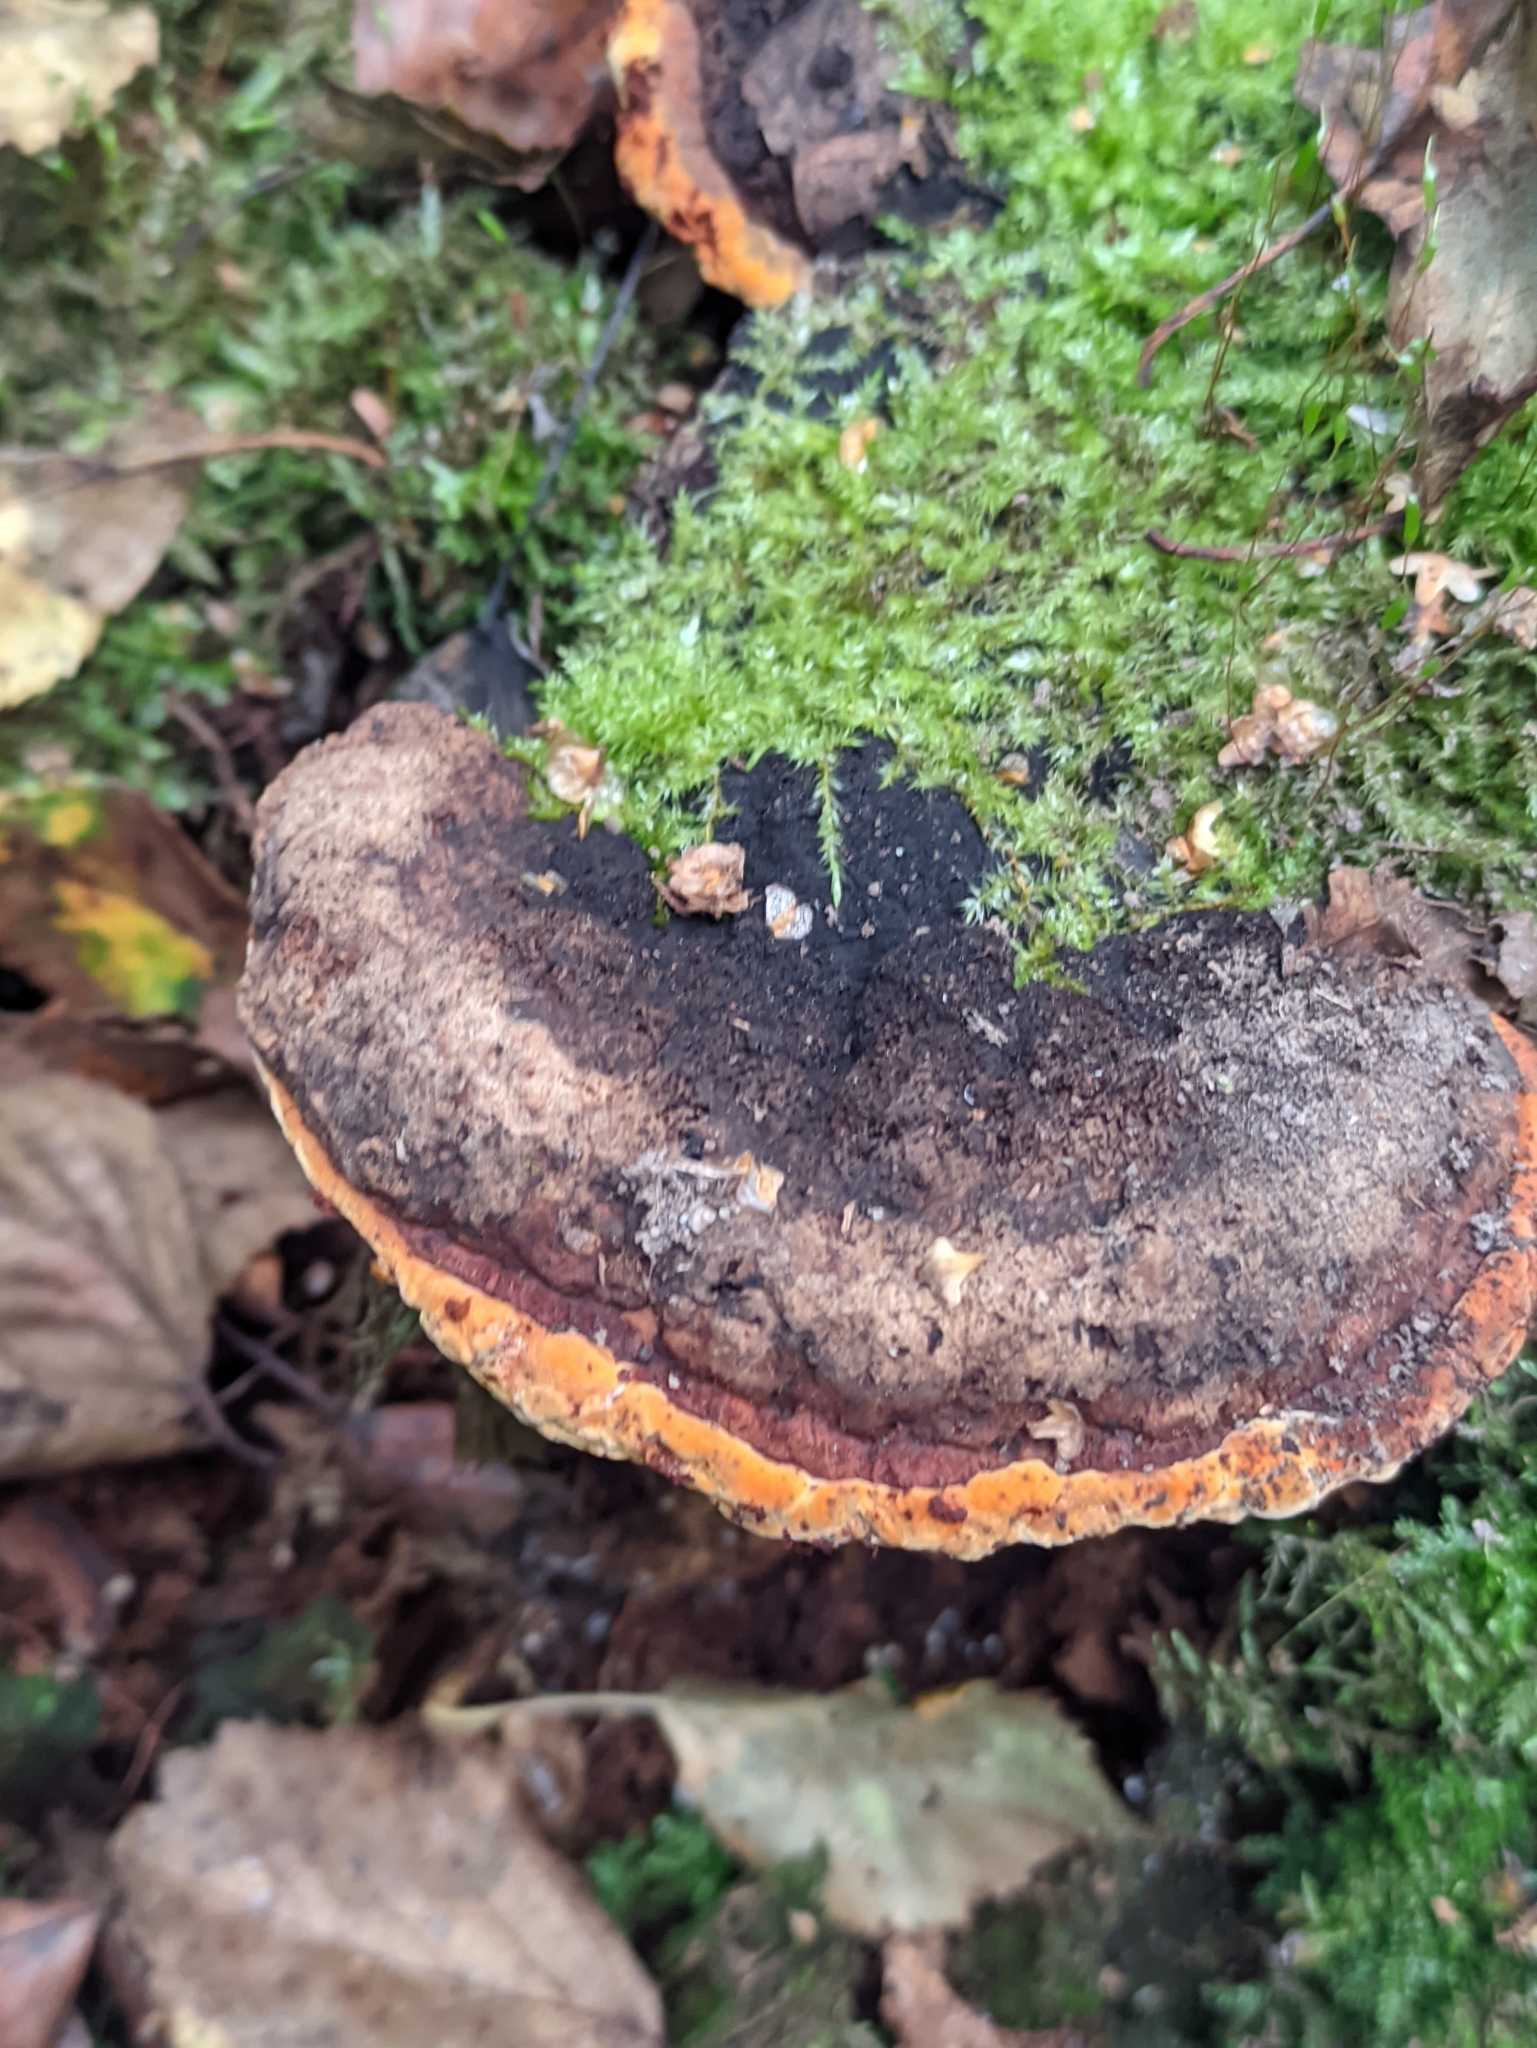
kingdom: Fungi
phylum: Basidiomycota
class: Agaricomycetes
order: Gloeophyllales
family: Gloeophyllaceae
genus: Gloeophyllum
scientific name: Gloeophyllum odoratum
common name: Anise mazegill
